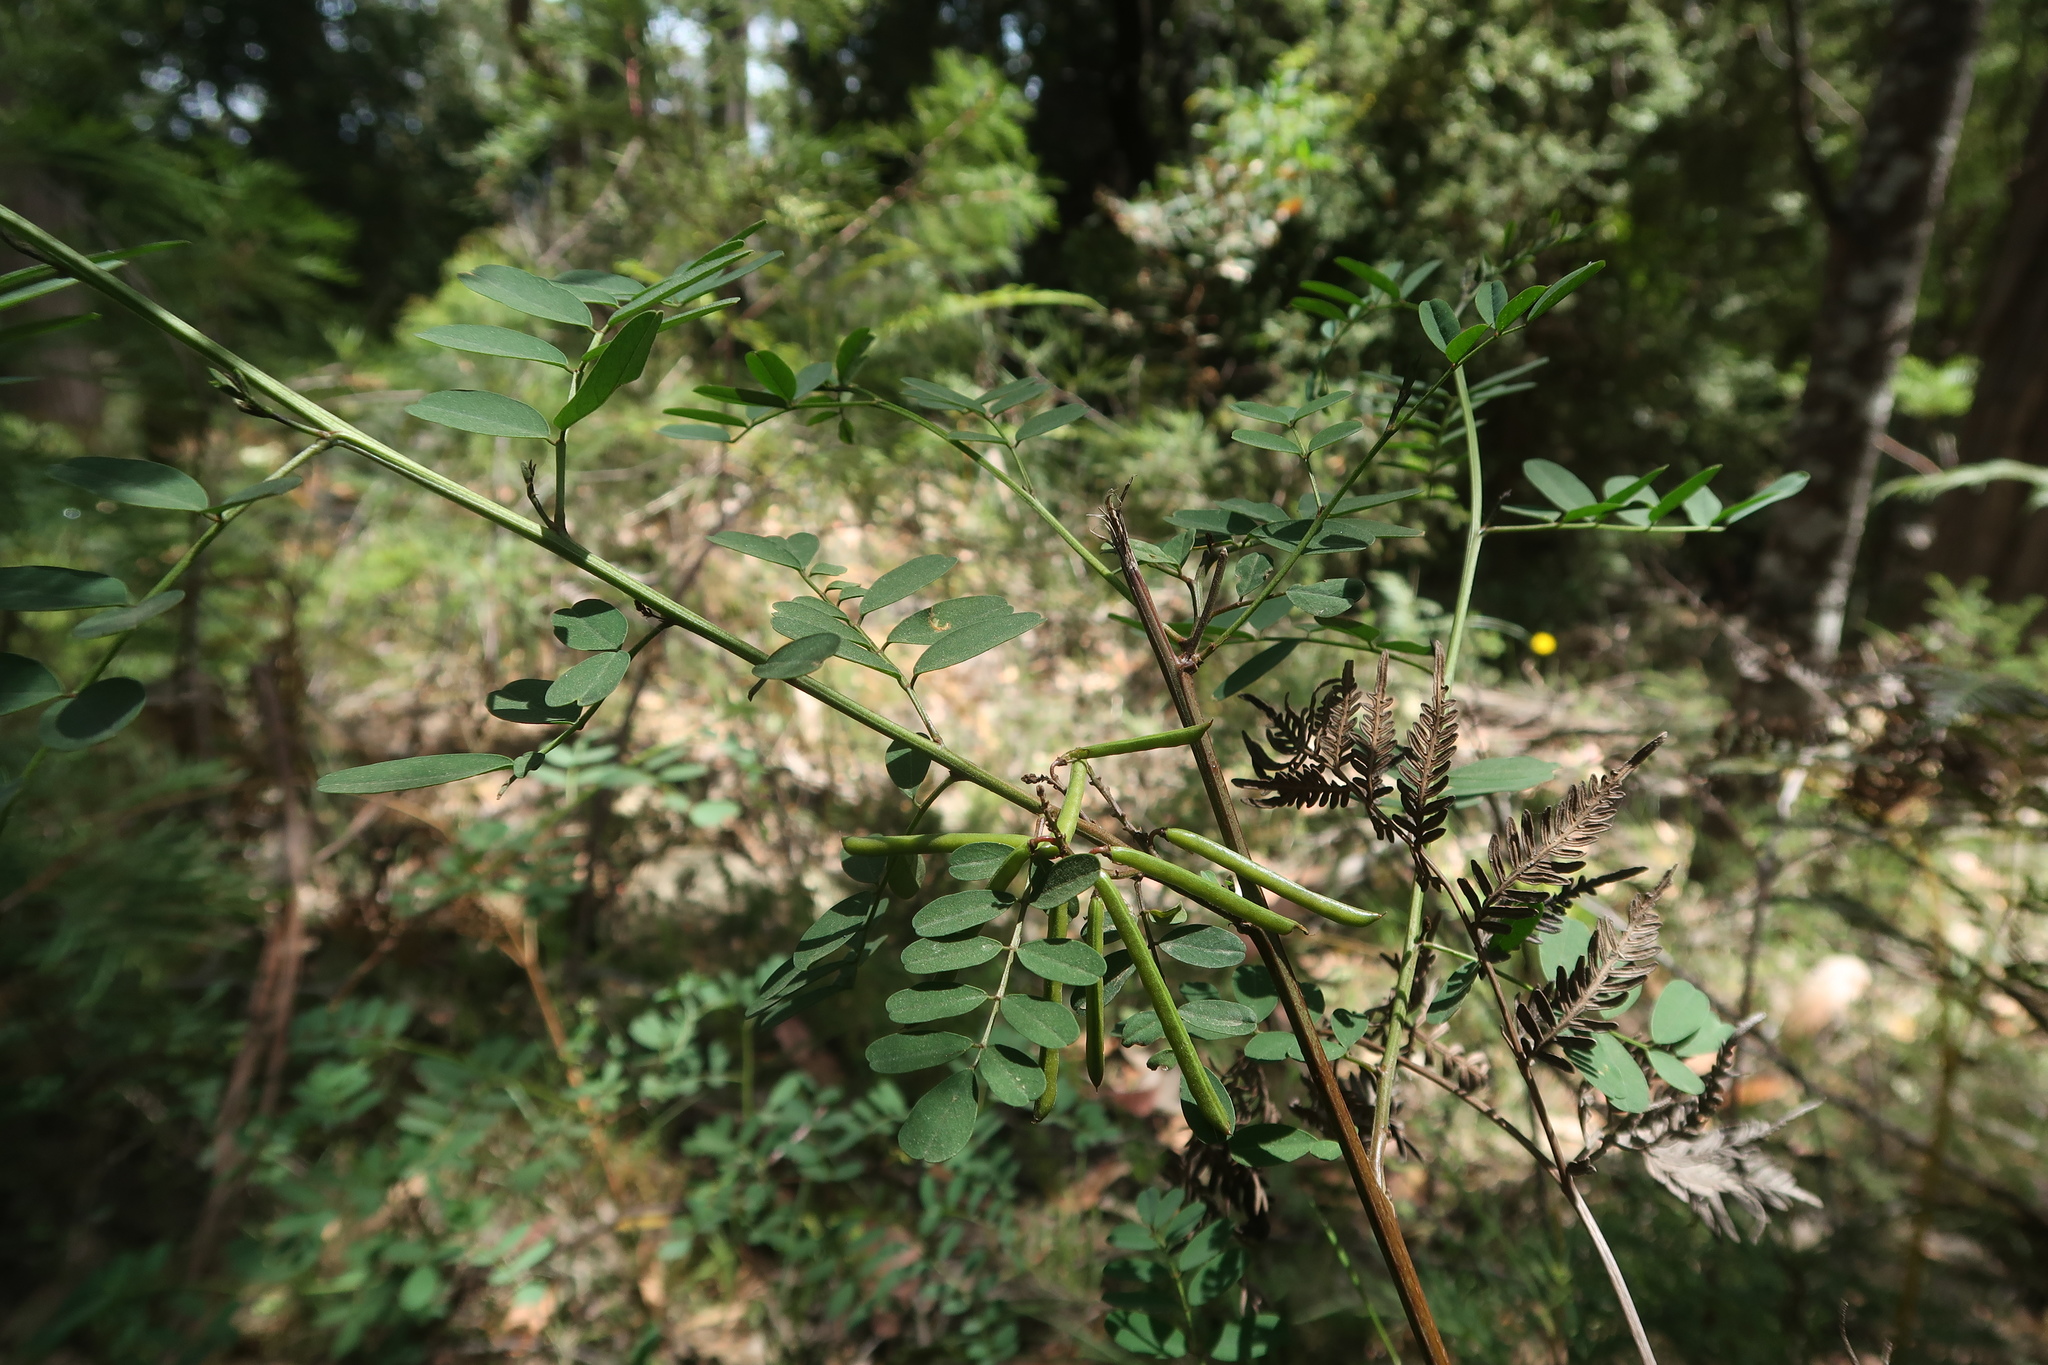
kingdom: Plantae
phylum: Tracheophyta
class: Magnoliopsida
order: Fabales
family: Fabaceae
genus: Indigofera
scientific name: Indigofera australis
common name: Australian indigo
